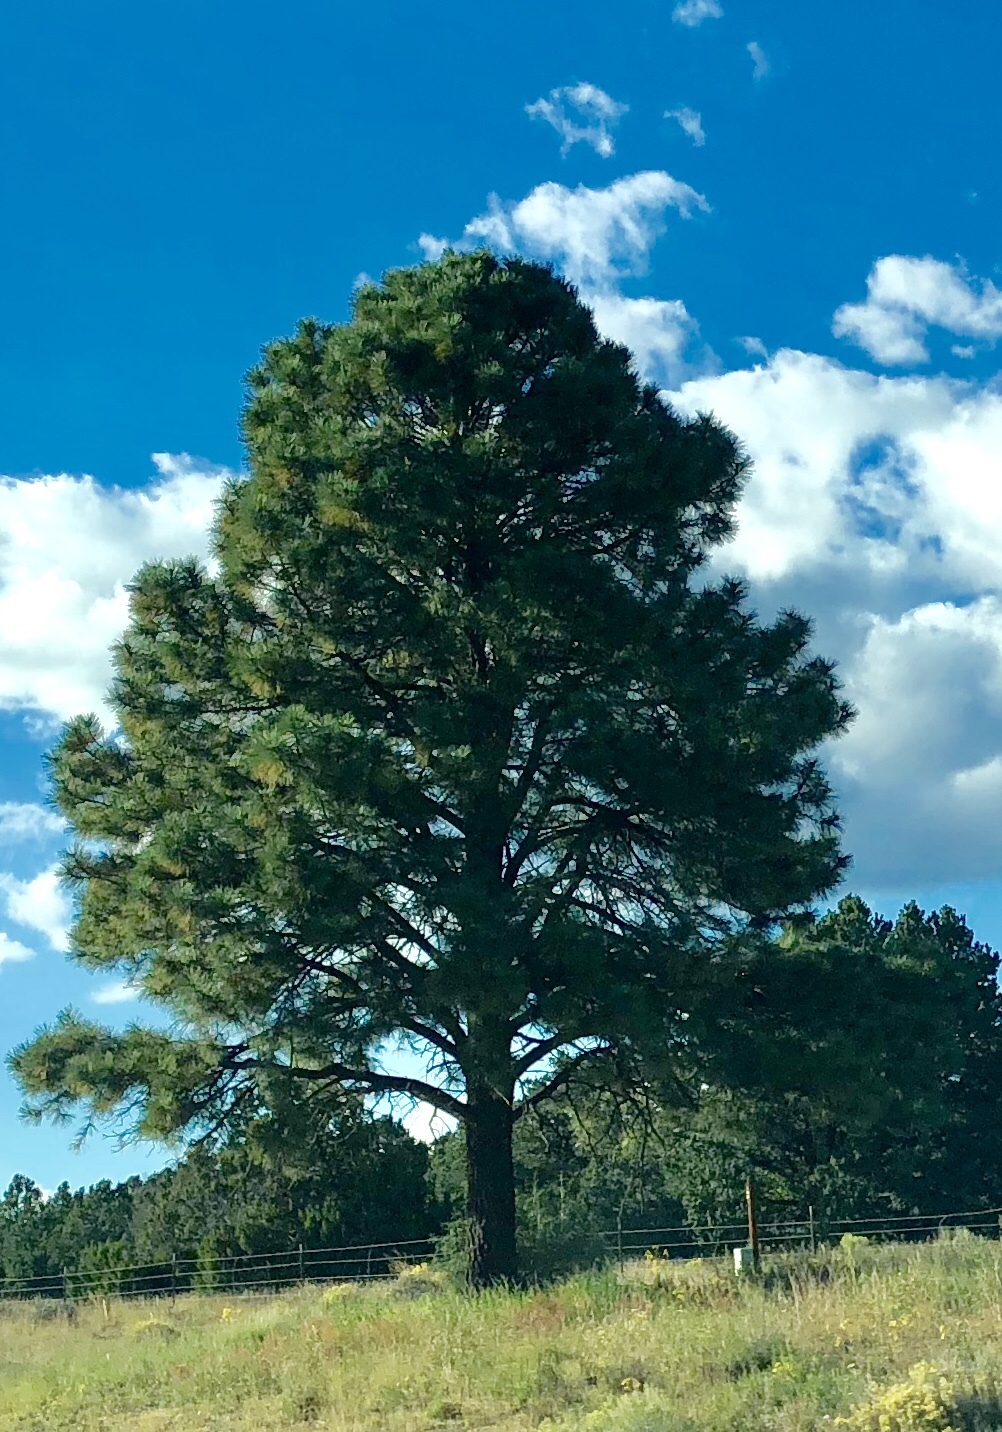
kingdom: Plantae
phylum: Tracheophyta
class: Pinopsida
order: Pinales
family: Pinaceae
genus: Pinus
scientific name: Pinus ponderosa
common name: Western yellow-pine
